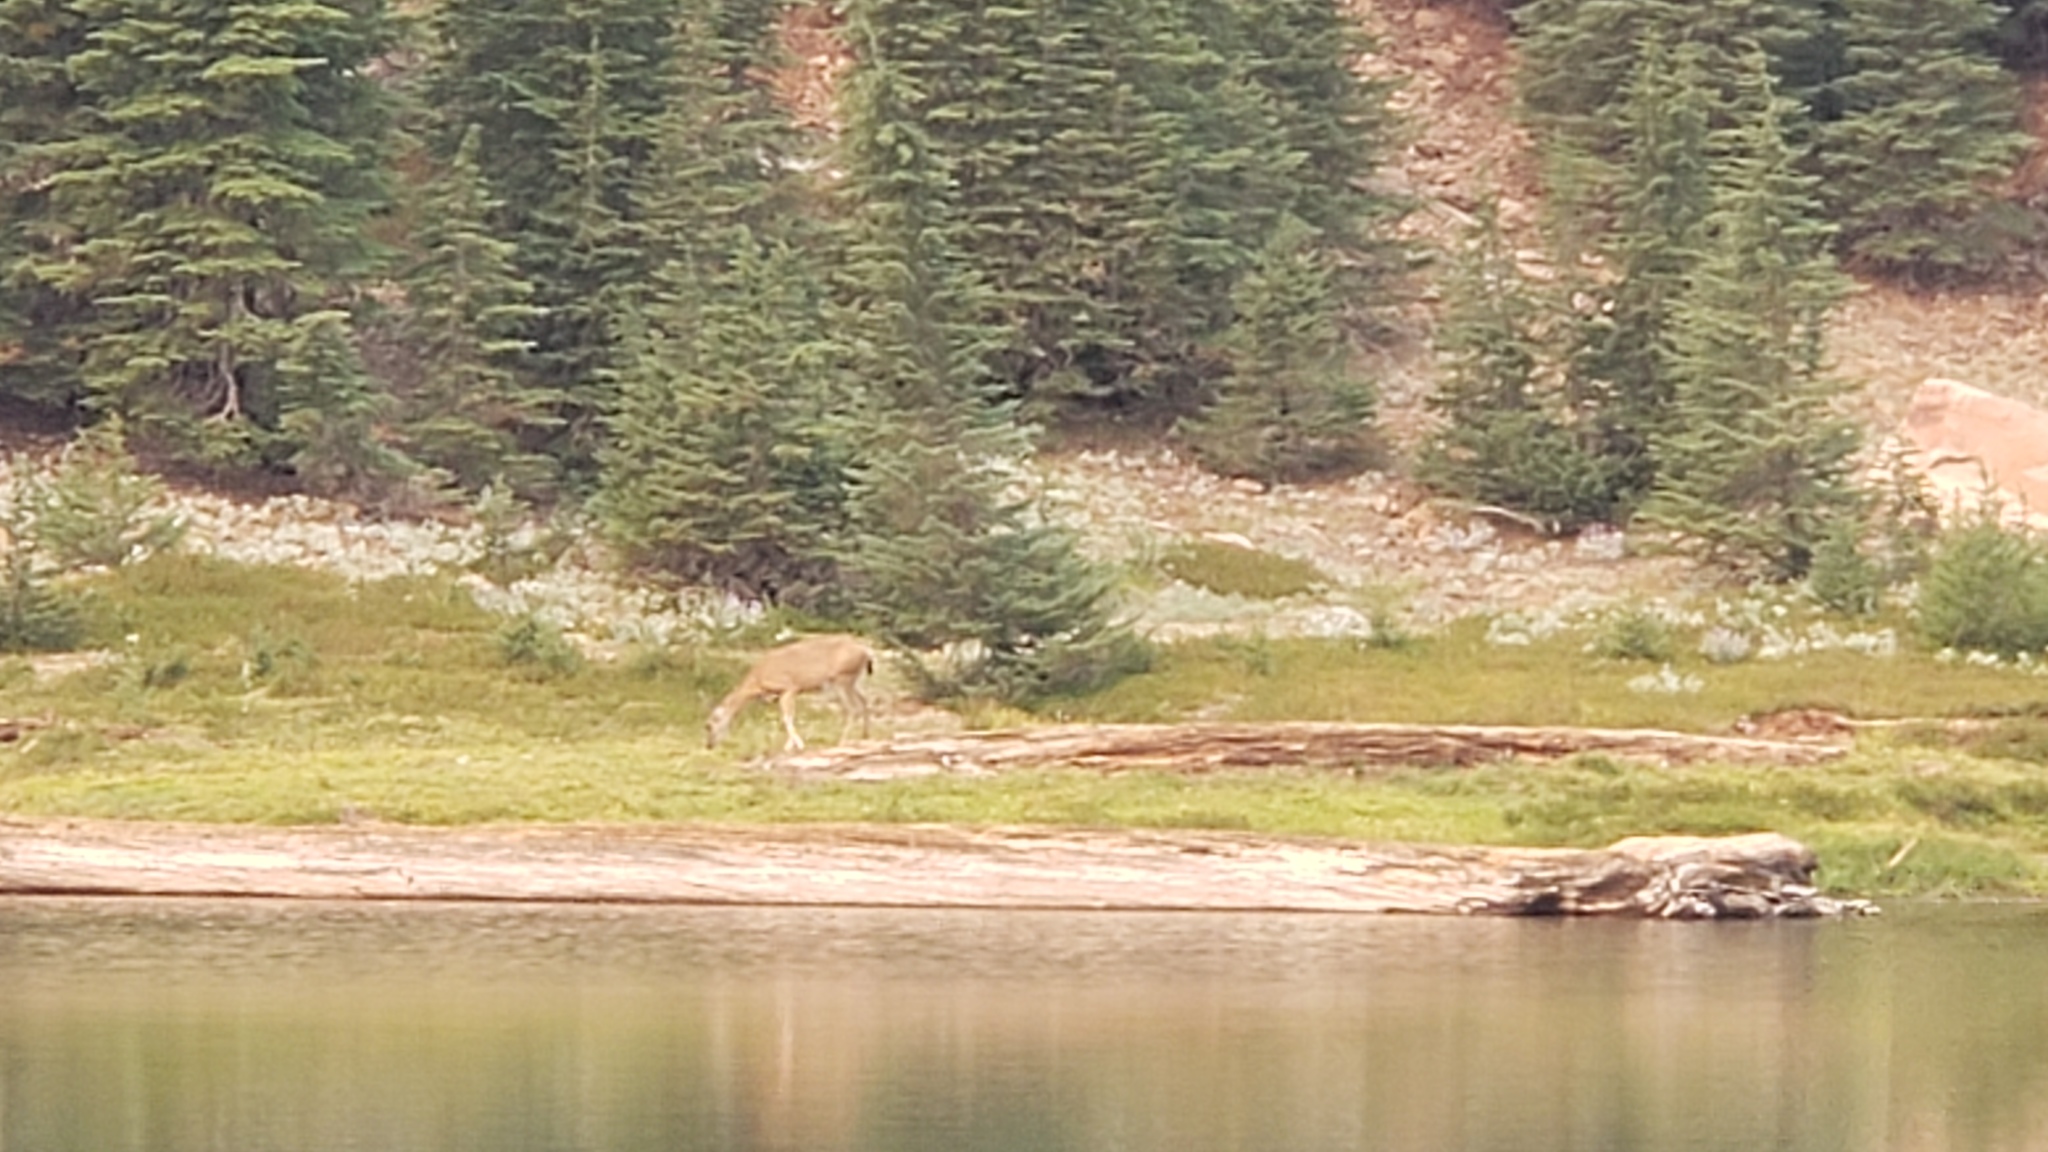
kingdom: Animalia
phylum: Chordata
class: Mammalia
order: Artiodactyla
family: Cervidae
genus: Odocoileus
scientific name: Odocoileus hemionus
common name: Mule deer
